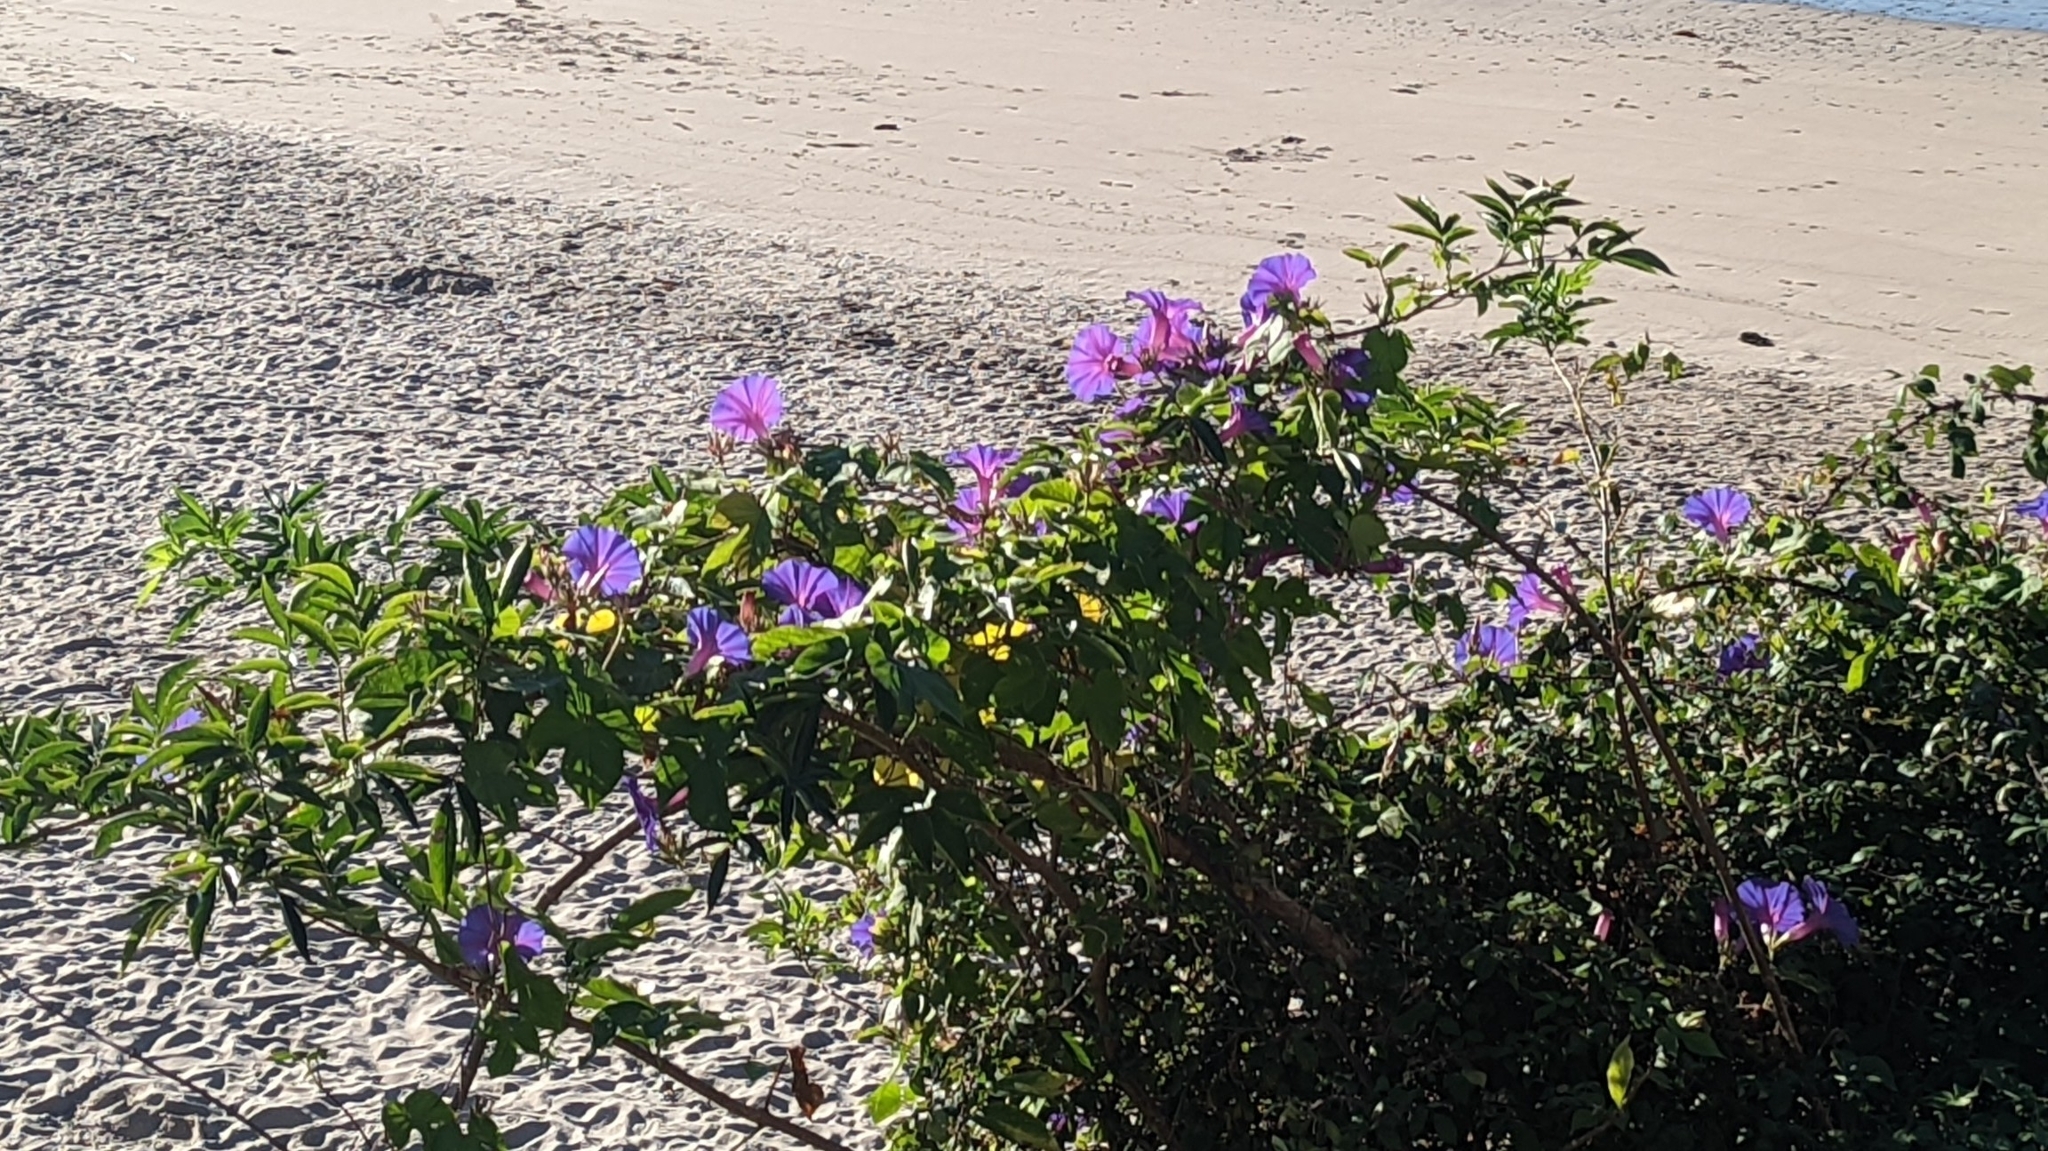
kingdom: Plantae
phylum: Tracheophyta
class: Magnoliopsida
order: Solanales
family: Convolvulaceae
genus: Ipomoea
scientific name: Ipomoea indica
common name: Blue dawnflower
